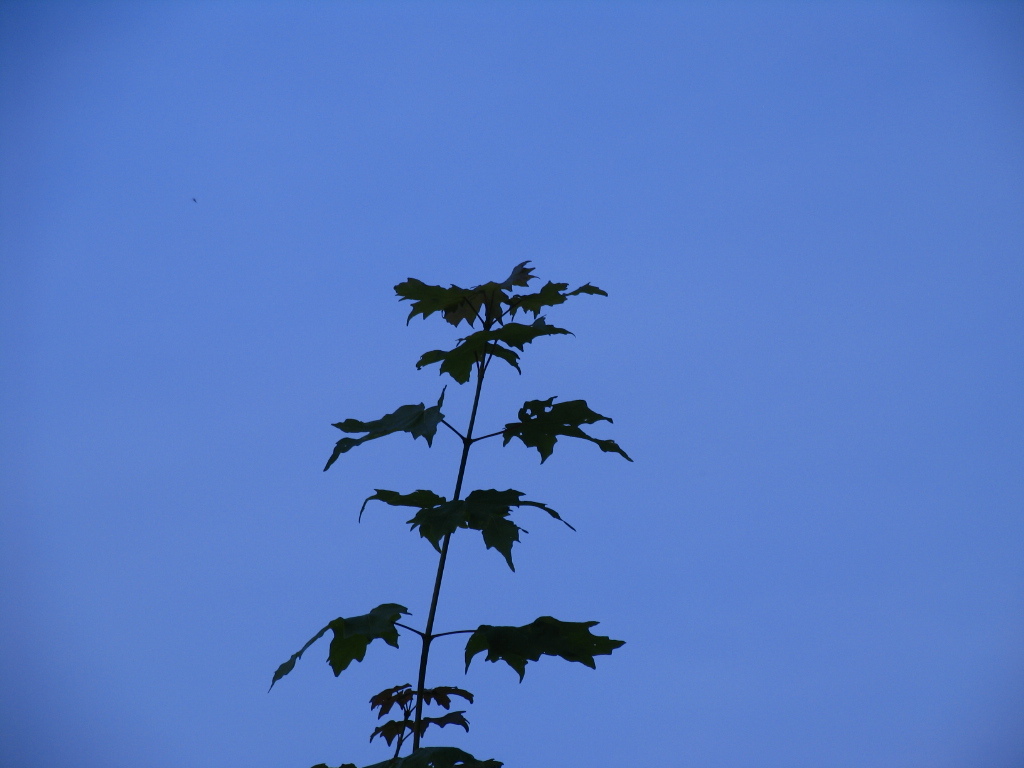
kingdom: Plantae
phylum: Tracheophyta
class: Magnoliopsida
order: Sapindales
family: Sapindaceae
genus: Acer
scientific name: Acer saccharum
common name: Sugar maple
